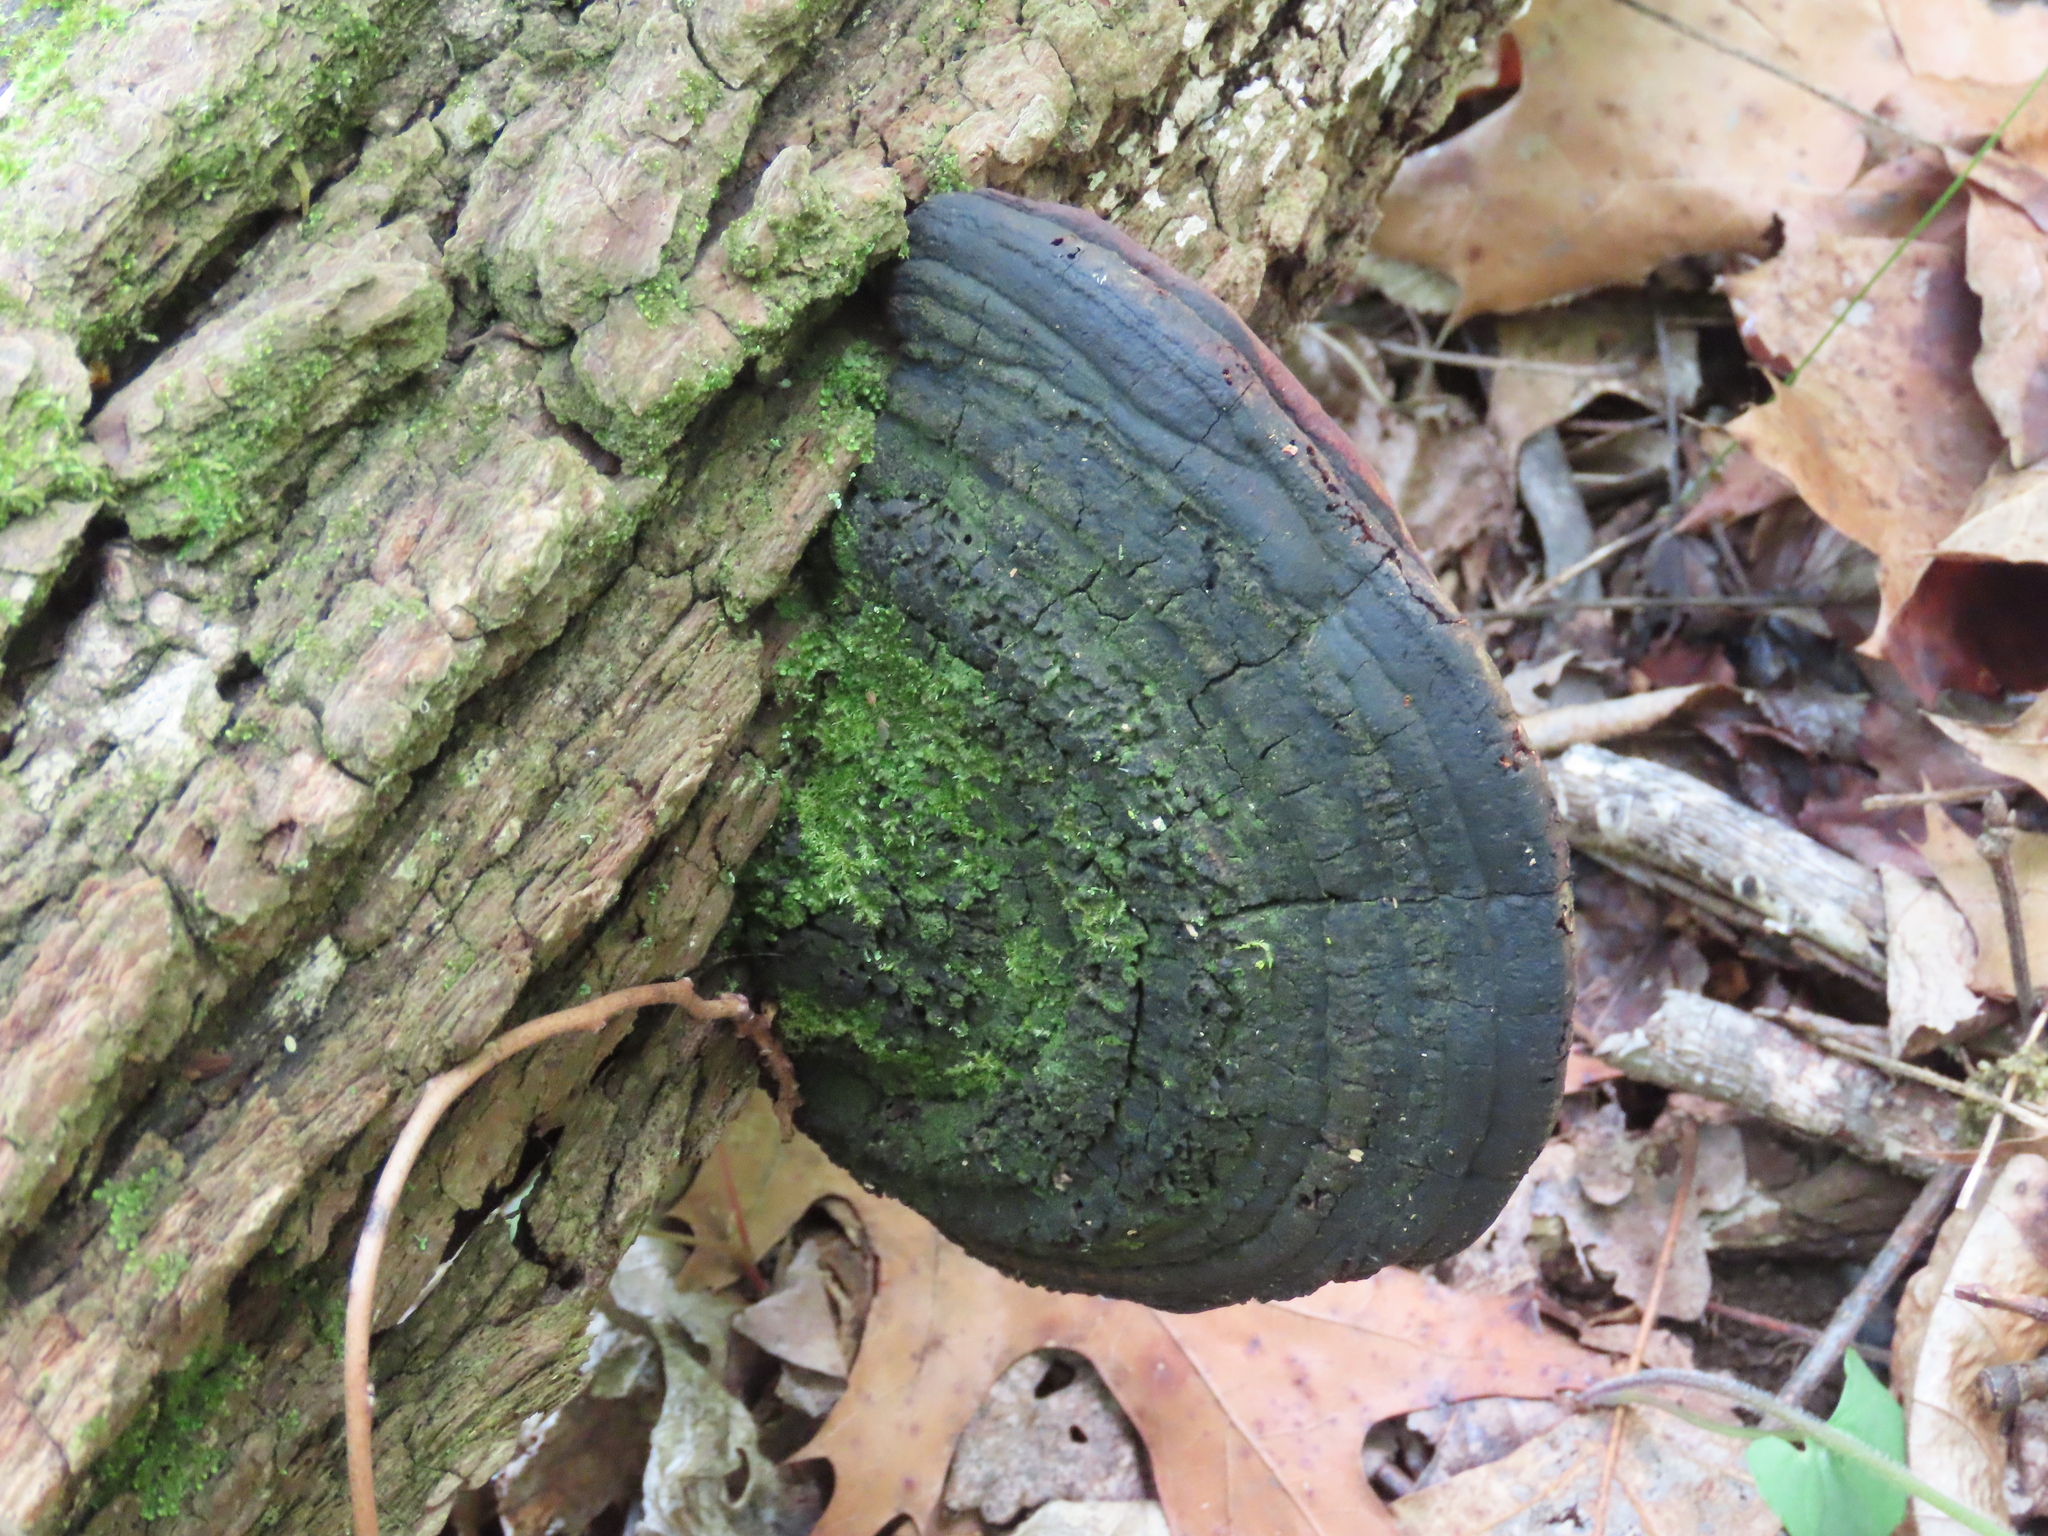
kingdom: Fungi
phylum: Basidiomycota
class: Agaricomycetes
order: Hymenochaetales
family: Hymenochaetaceae
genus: Phellinus
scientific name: Phellinus robiniae
